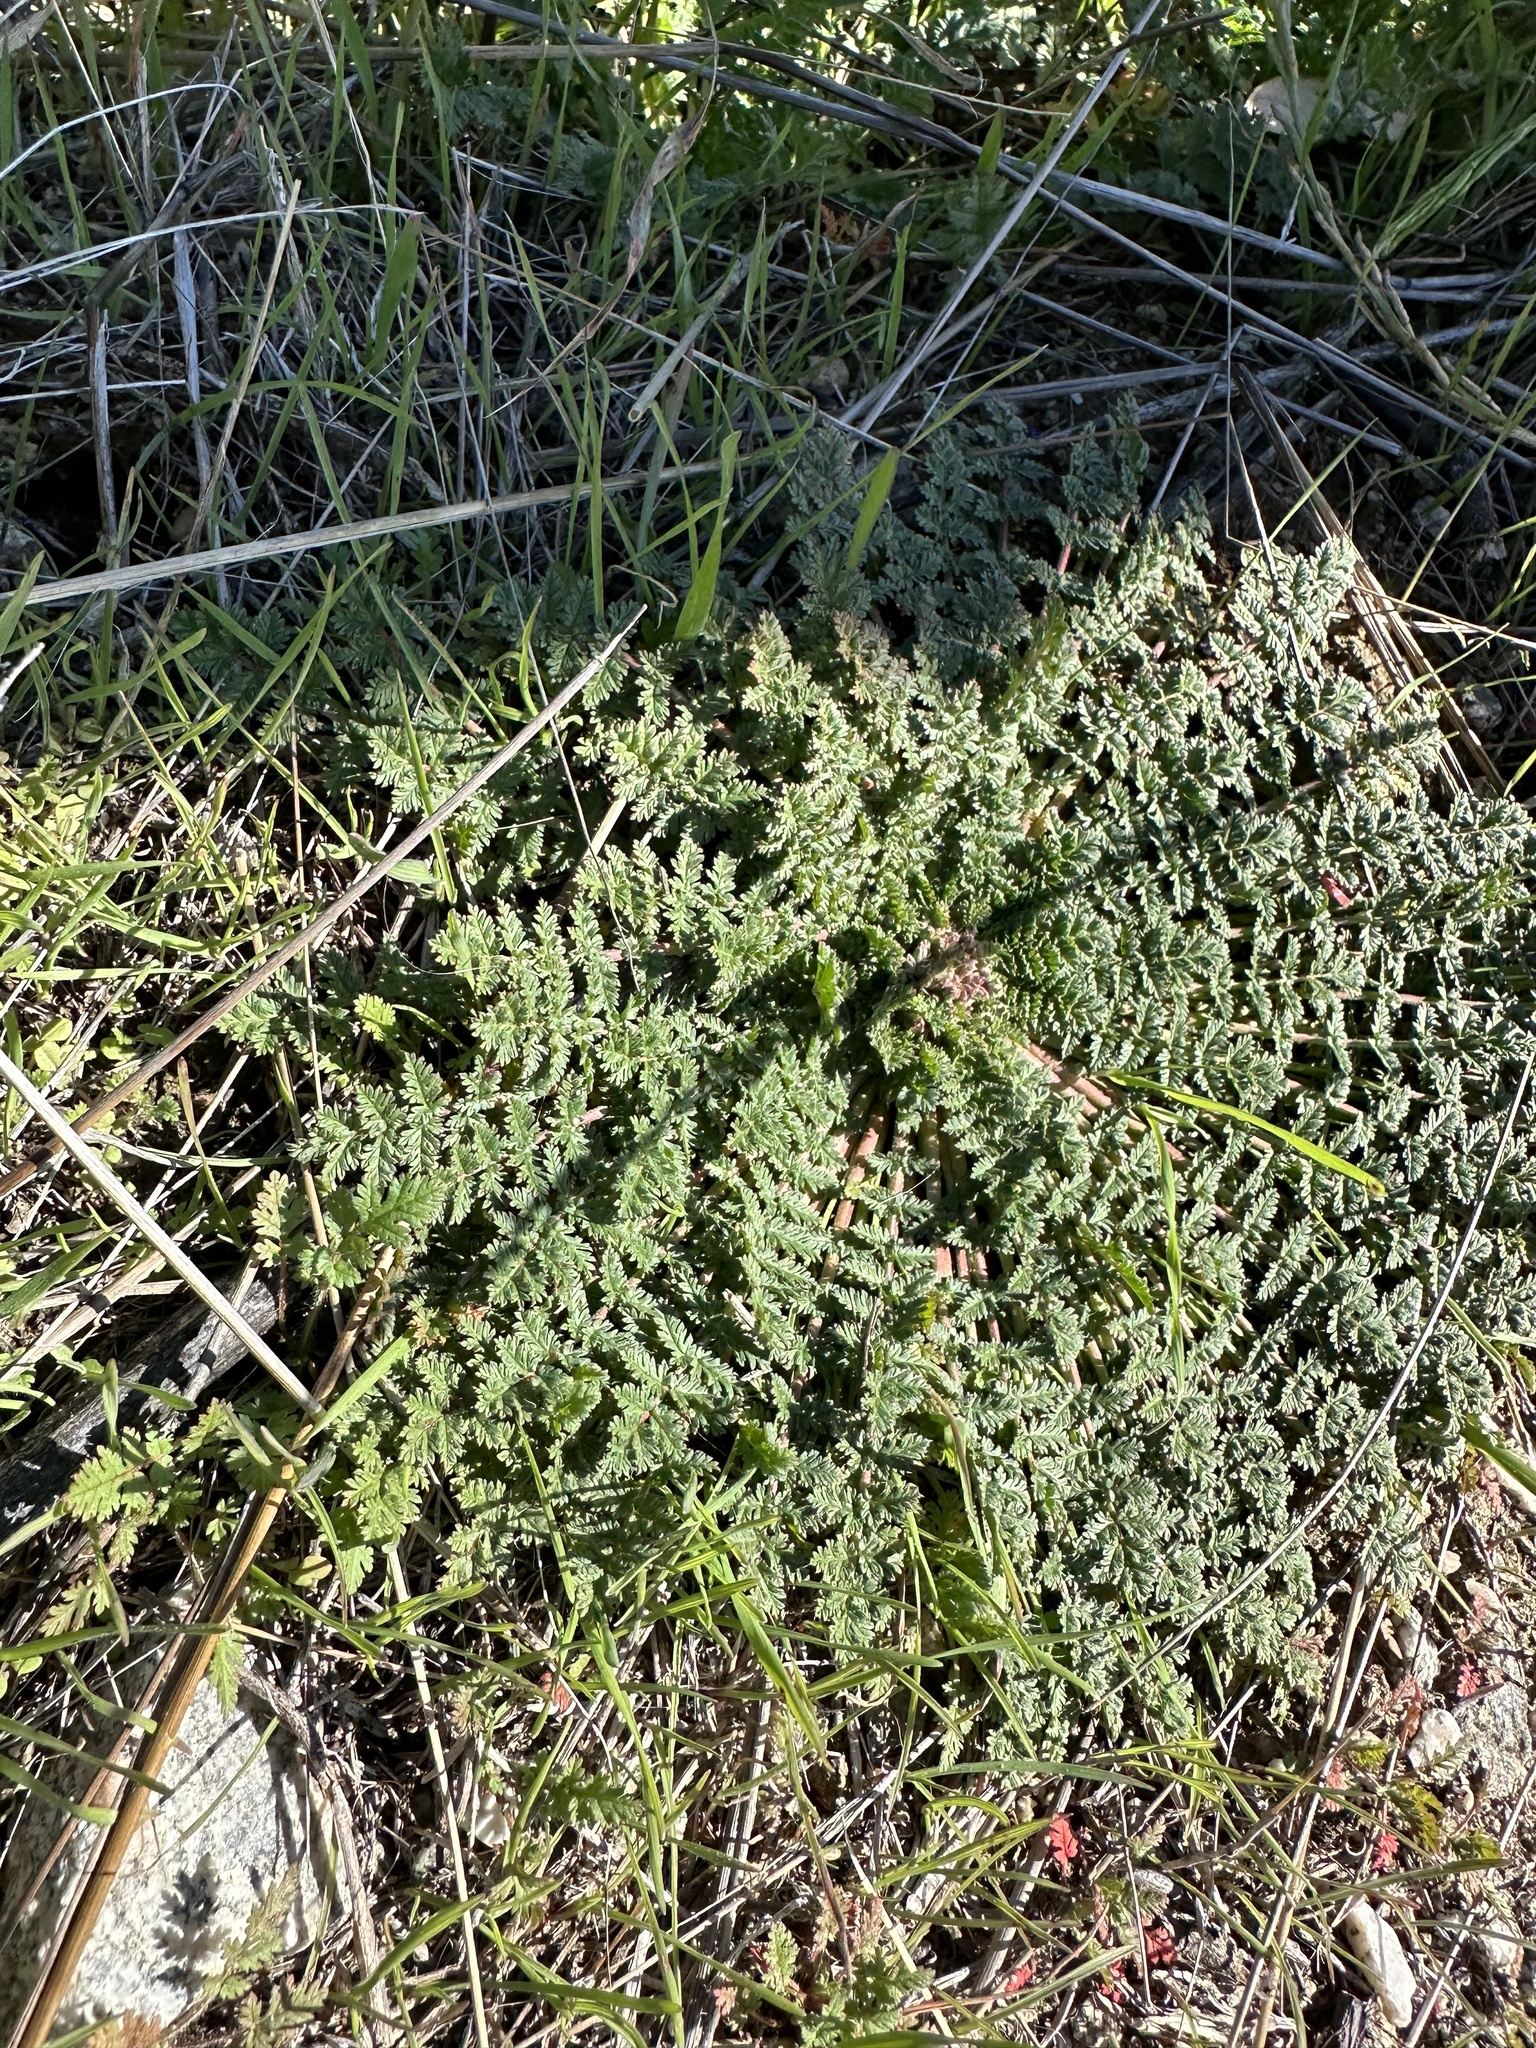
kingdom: Plantae
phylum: Tracheophyta
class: Magnoliopsida
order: Geraniales
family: Geraniaceae
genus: Erodium
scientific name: Erodium cicutarium
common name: Common stork's-bill
